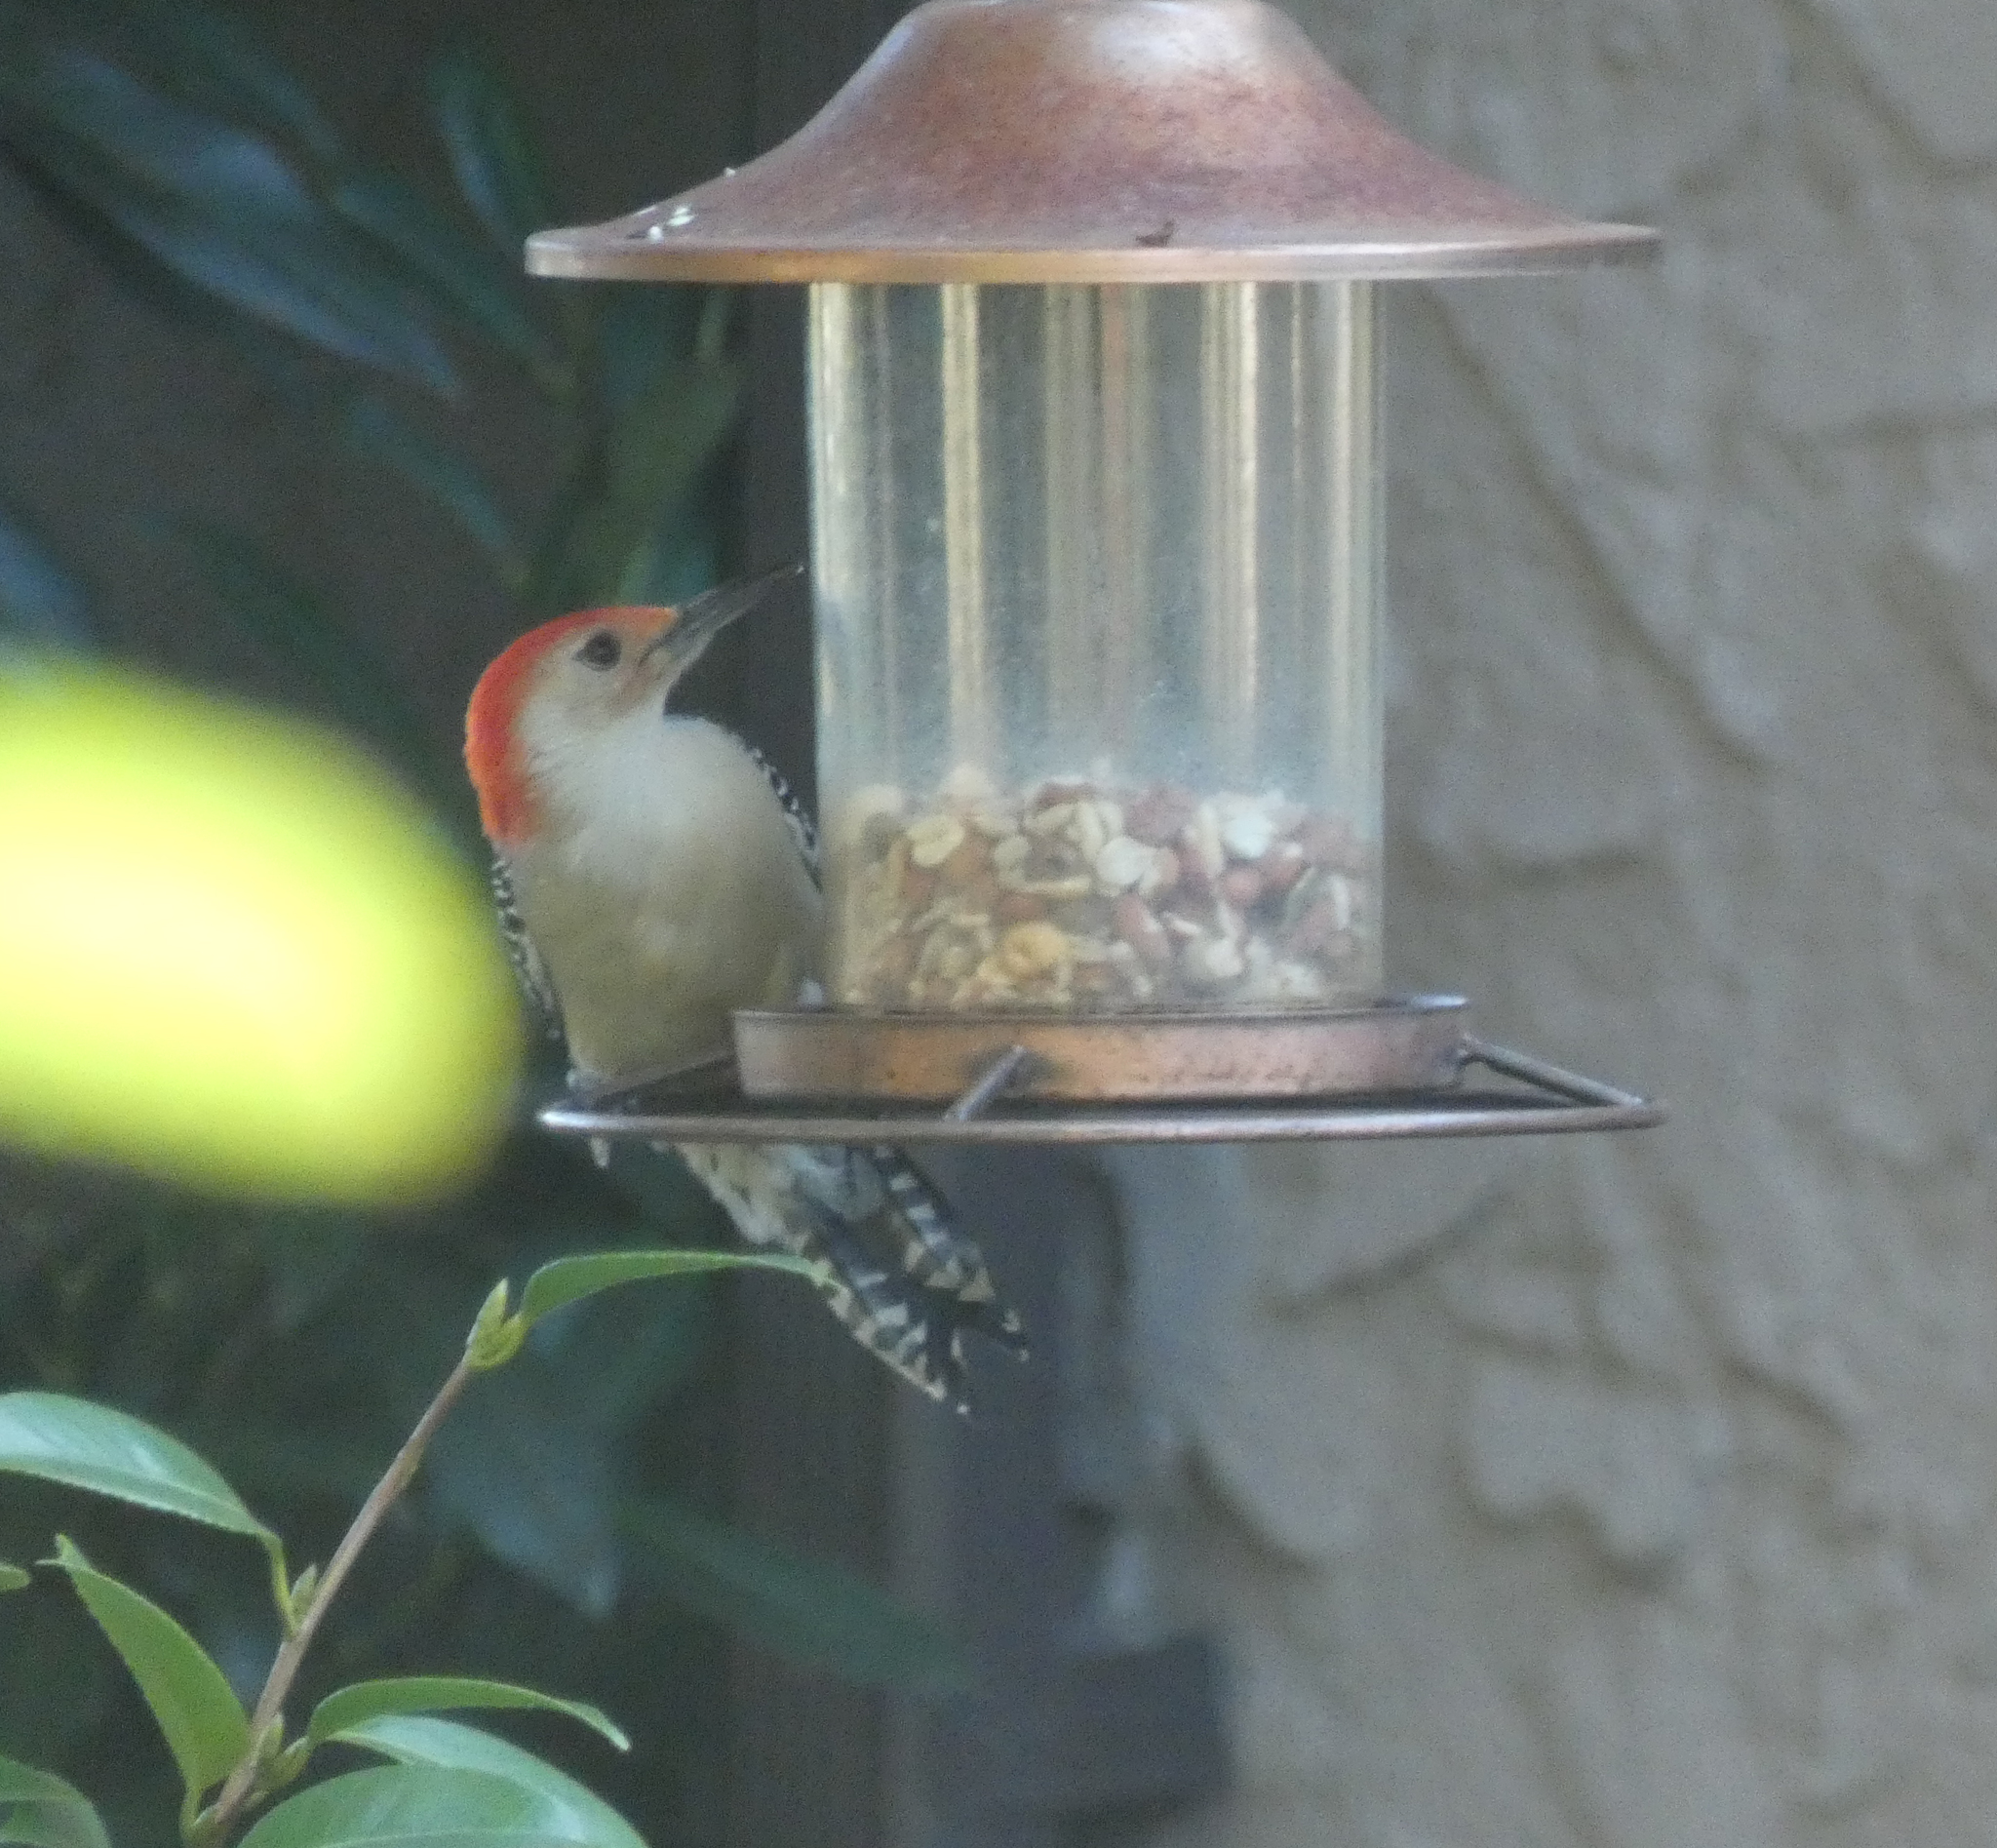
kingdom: Animalia
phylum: Chordata
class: Aves
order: Piciformes
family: Picidae
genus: Melanerpes
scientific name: Melanerpes carolinus
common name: Red-bellied woodpecker
